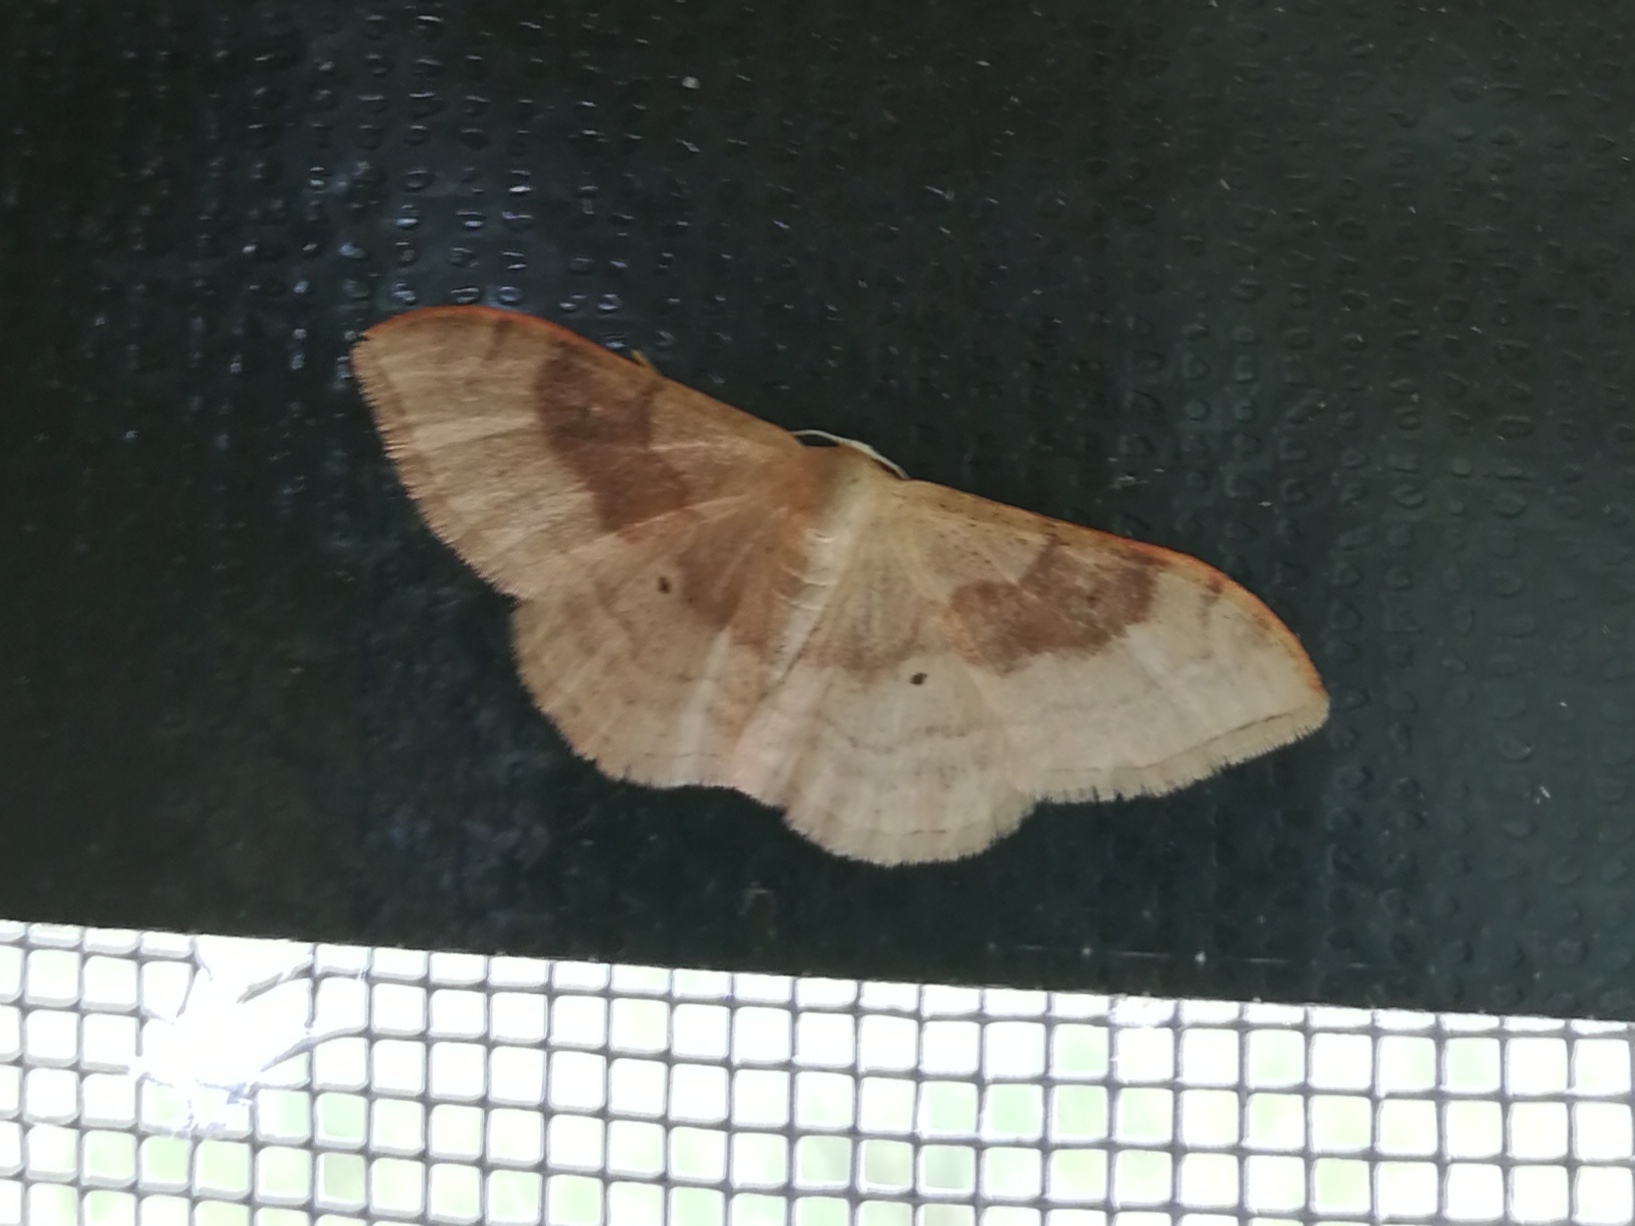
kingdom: Animalia
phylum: Arthropoda
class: Insecta
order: Lepidoptera
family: Geometridae
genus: Idaea
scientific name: Idaea degeneraria
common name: Portland ribbon wave
